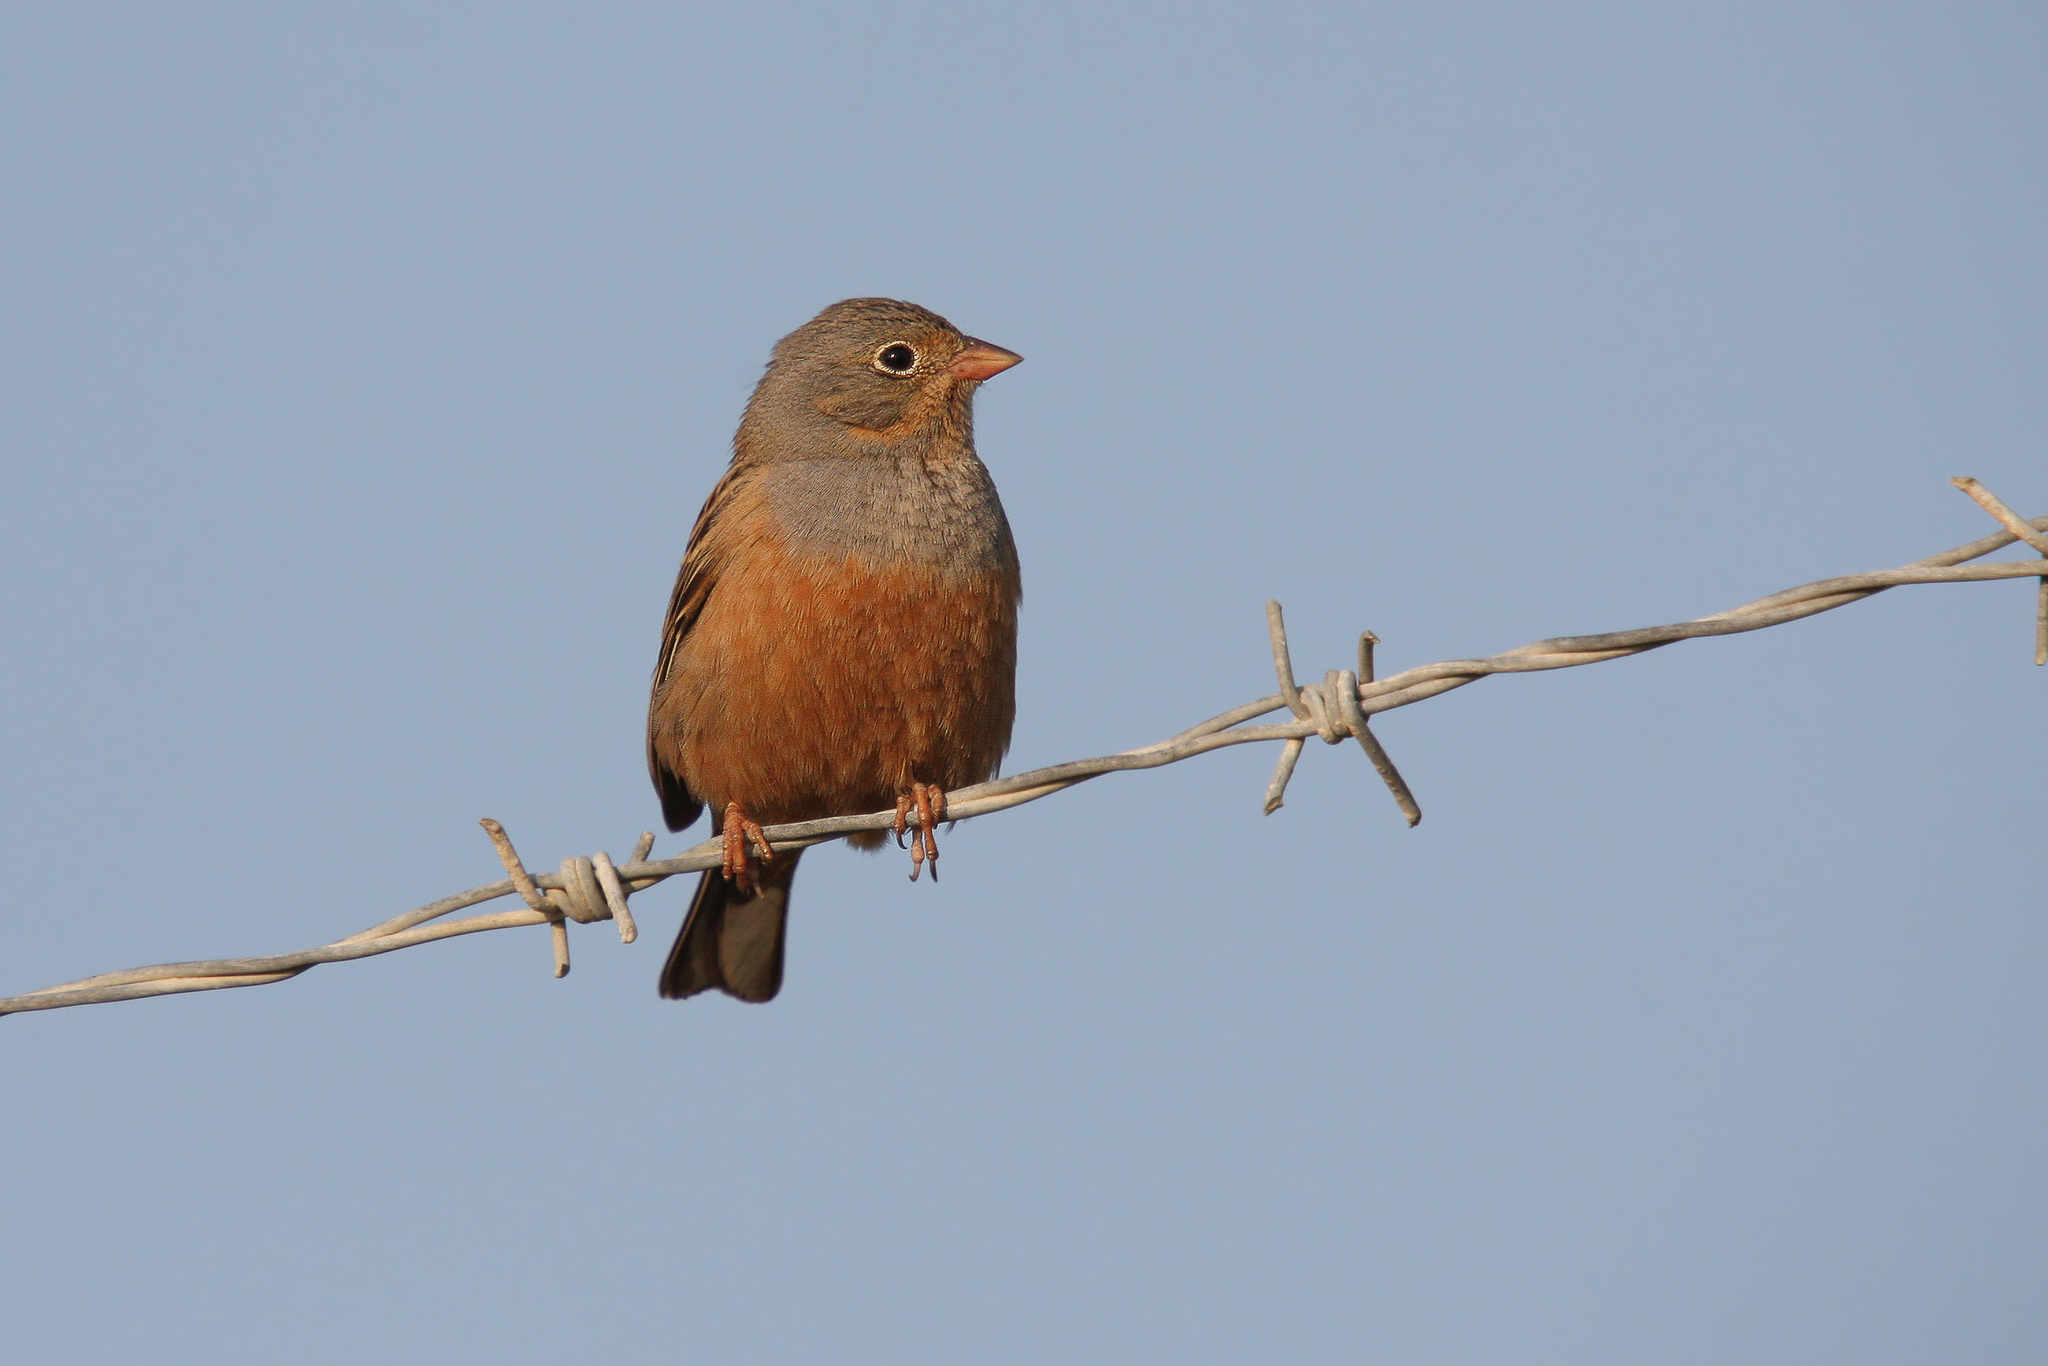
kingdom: Animalia
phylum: Chordata
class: Aves
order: Passeriformes
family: Emberizidae
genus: Emberiza
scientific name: Emberiza caesia
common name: Cretzschmar's bunting
